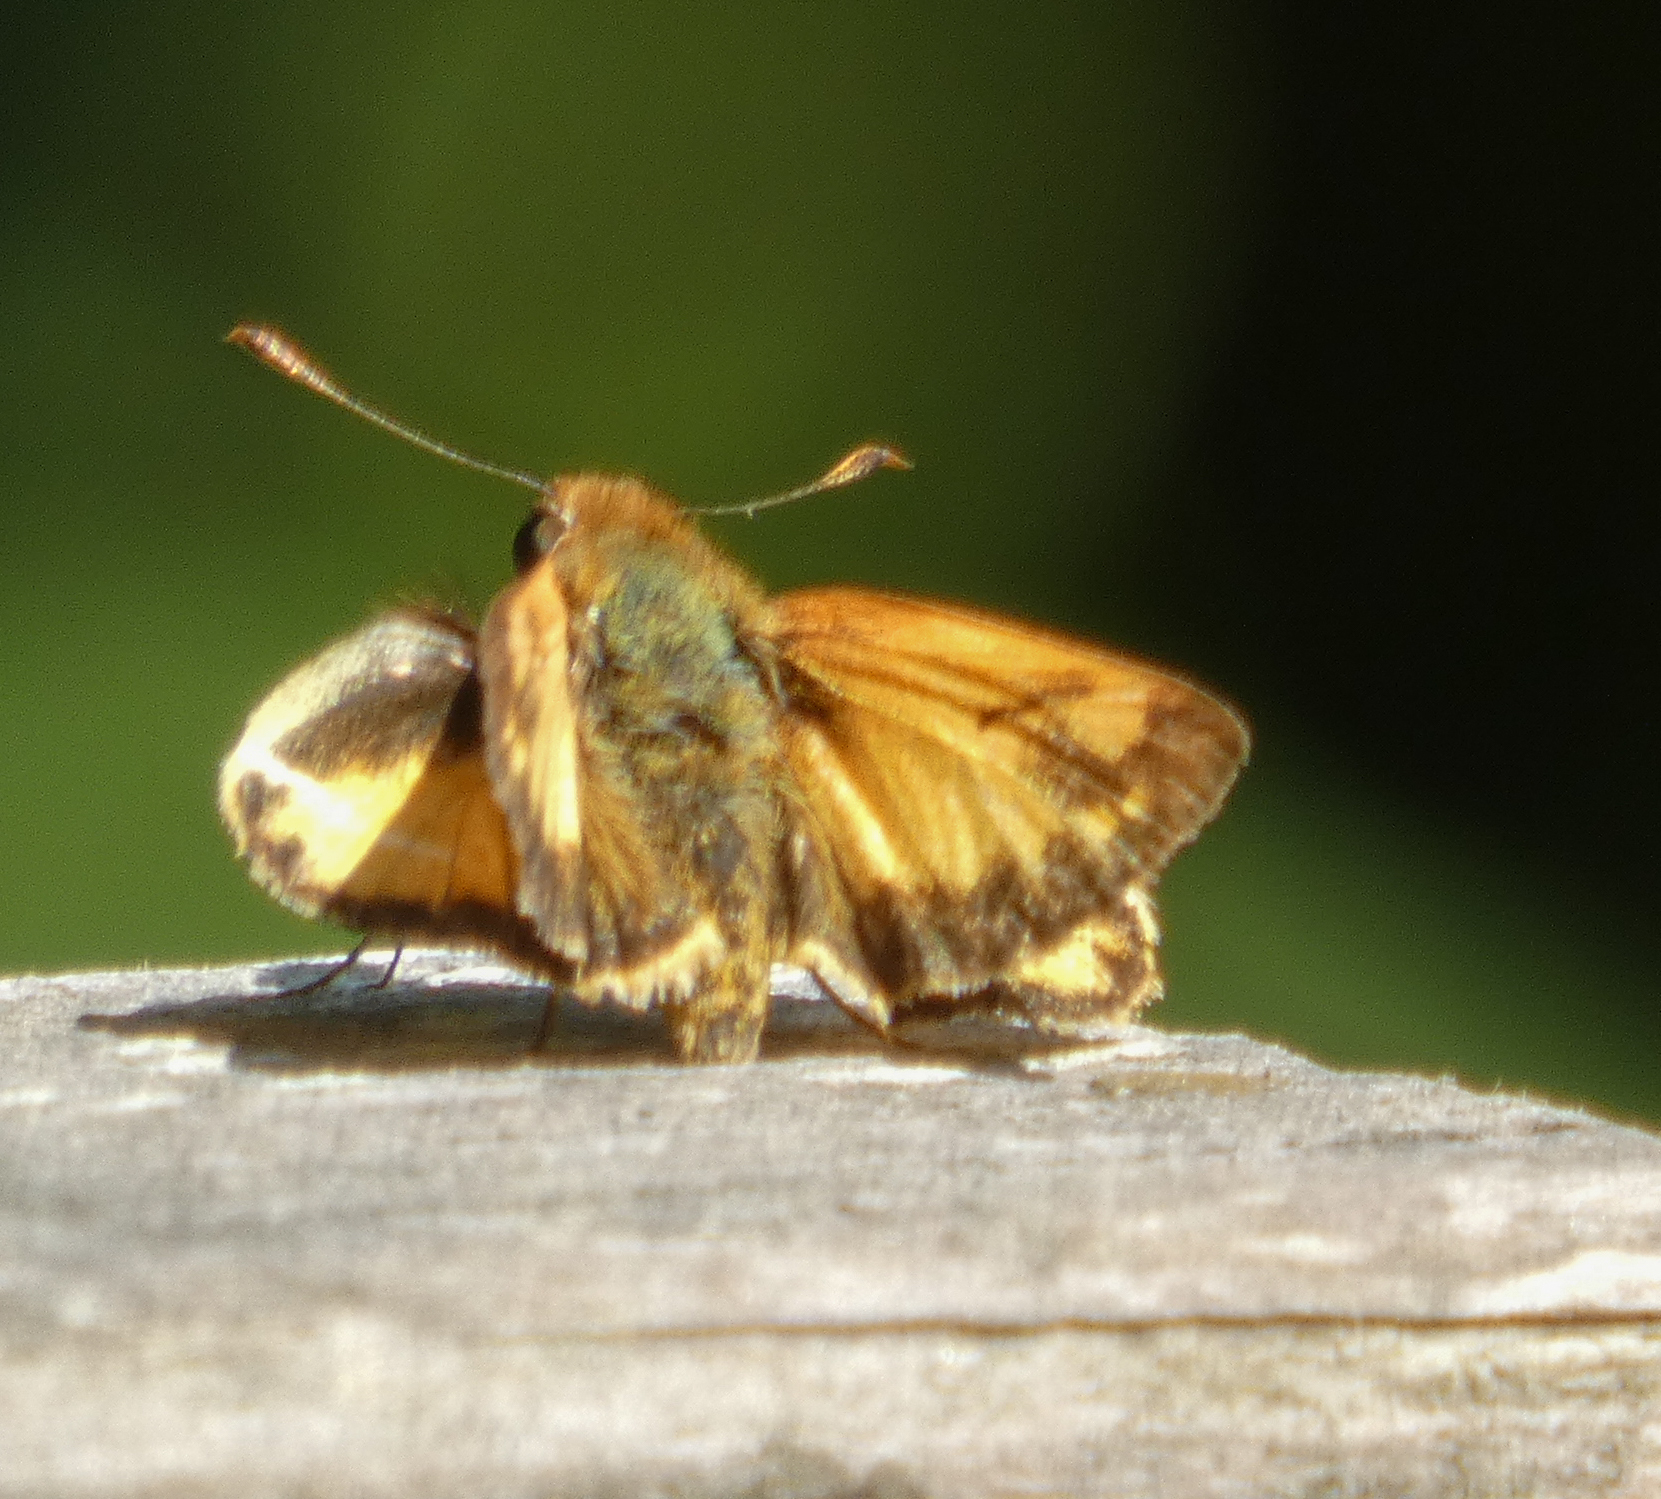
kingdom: Animalia
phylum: Arthropoda
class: Insecta
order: Lepidoptera
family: Hesperiidae
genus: Lon
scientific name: Lon zabulon
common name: Zabulon skipper
